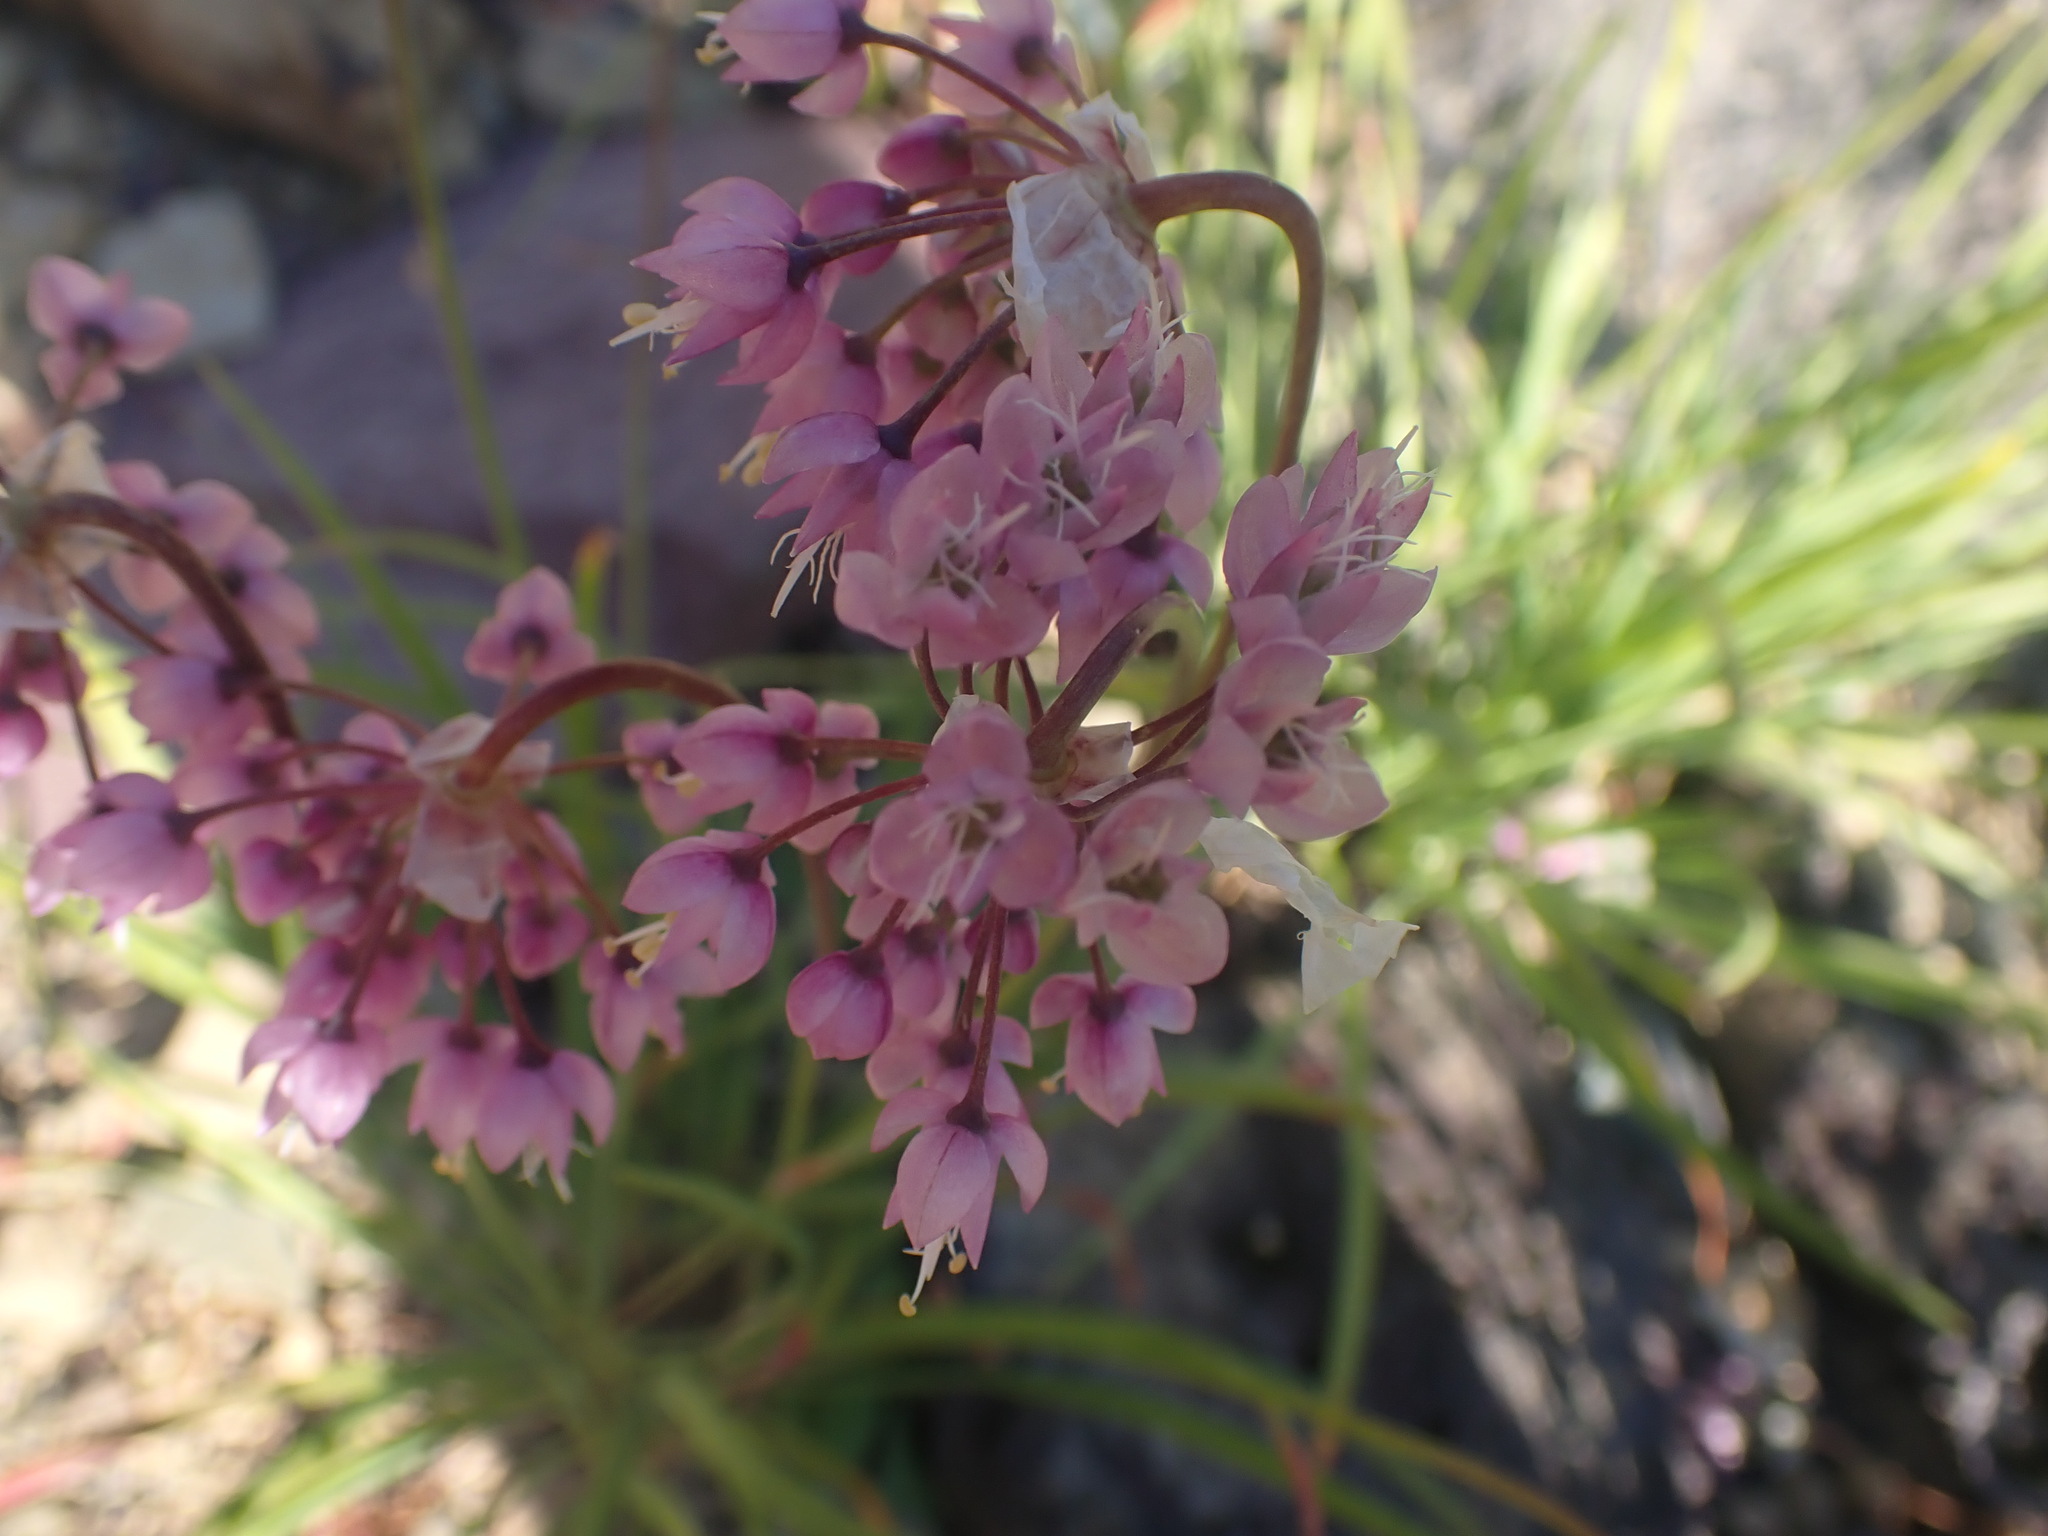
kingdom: Plantae
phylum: Tracheophyta
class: Liliopsida
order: Asparagales
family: Amaryllidaceae
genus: Allium
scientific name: Allium cernuum
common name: Nodding onion
